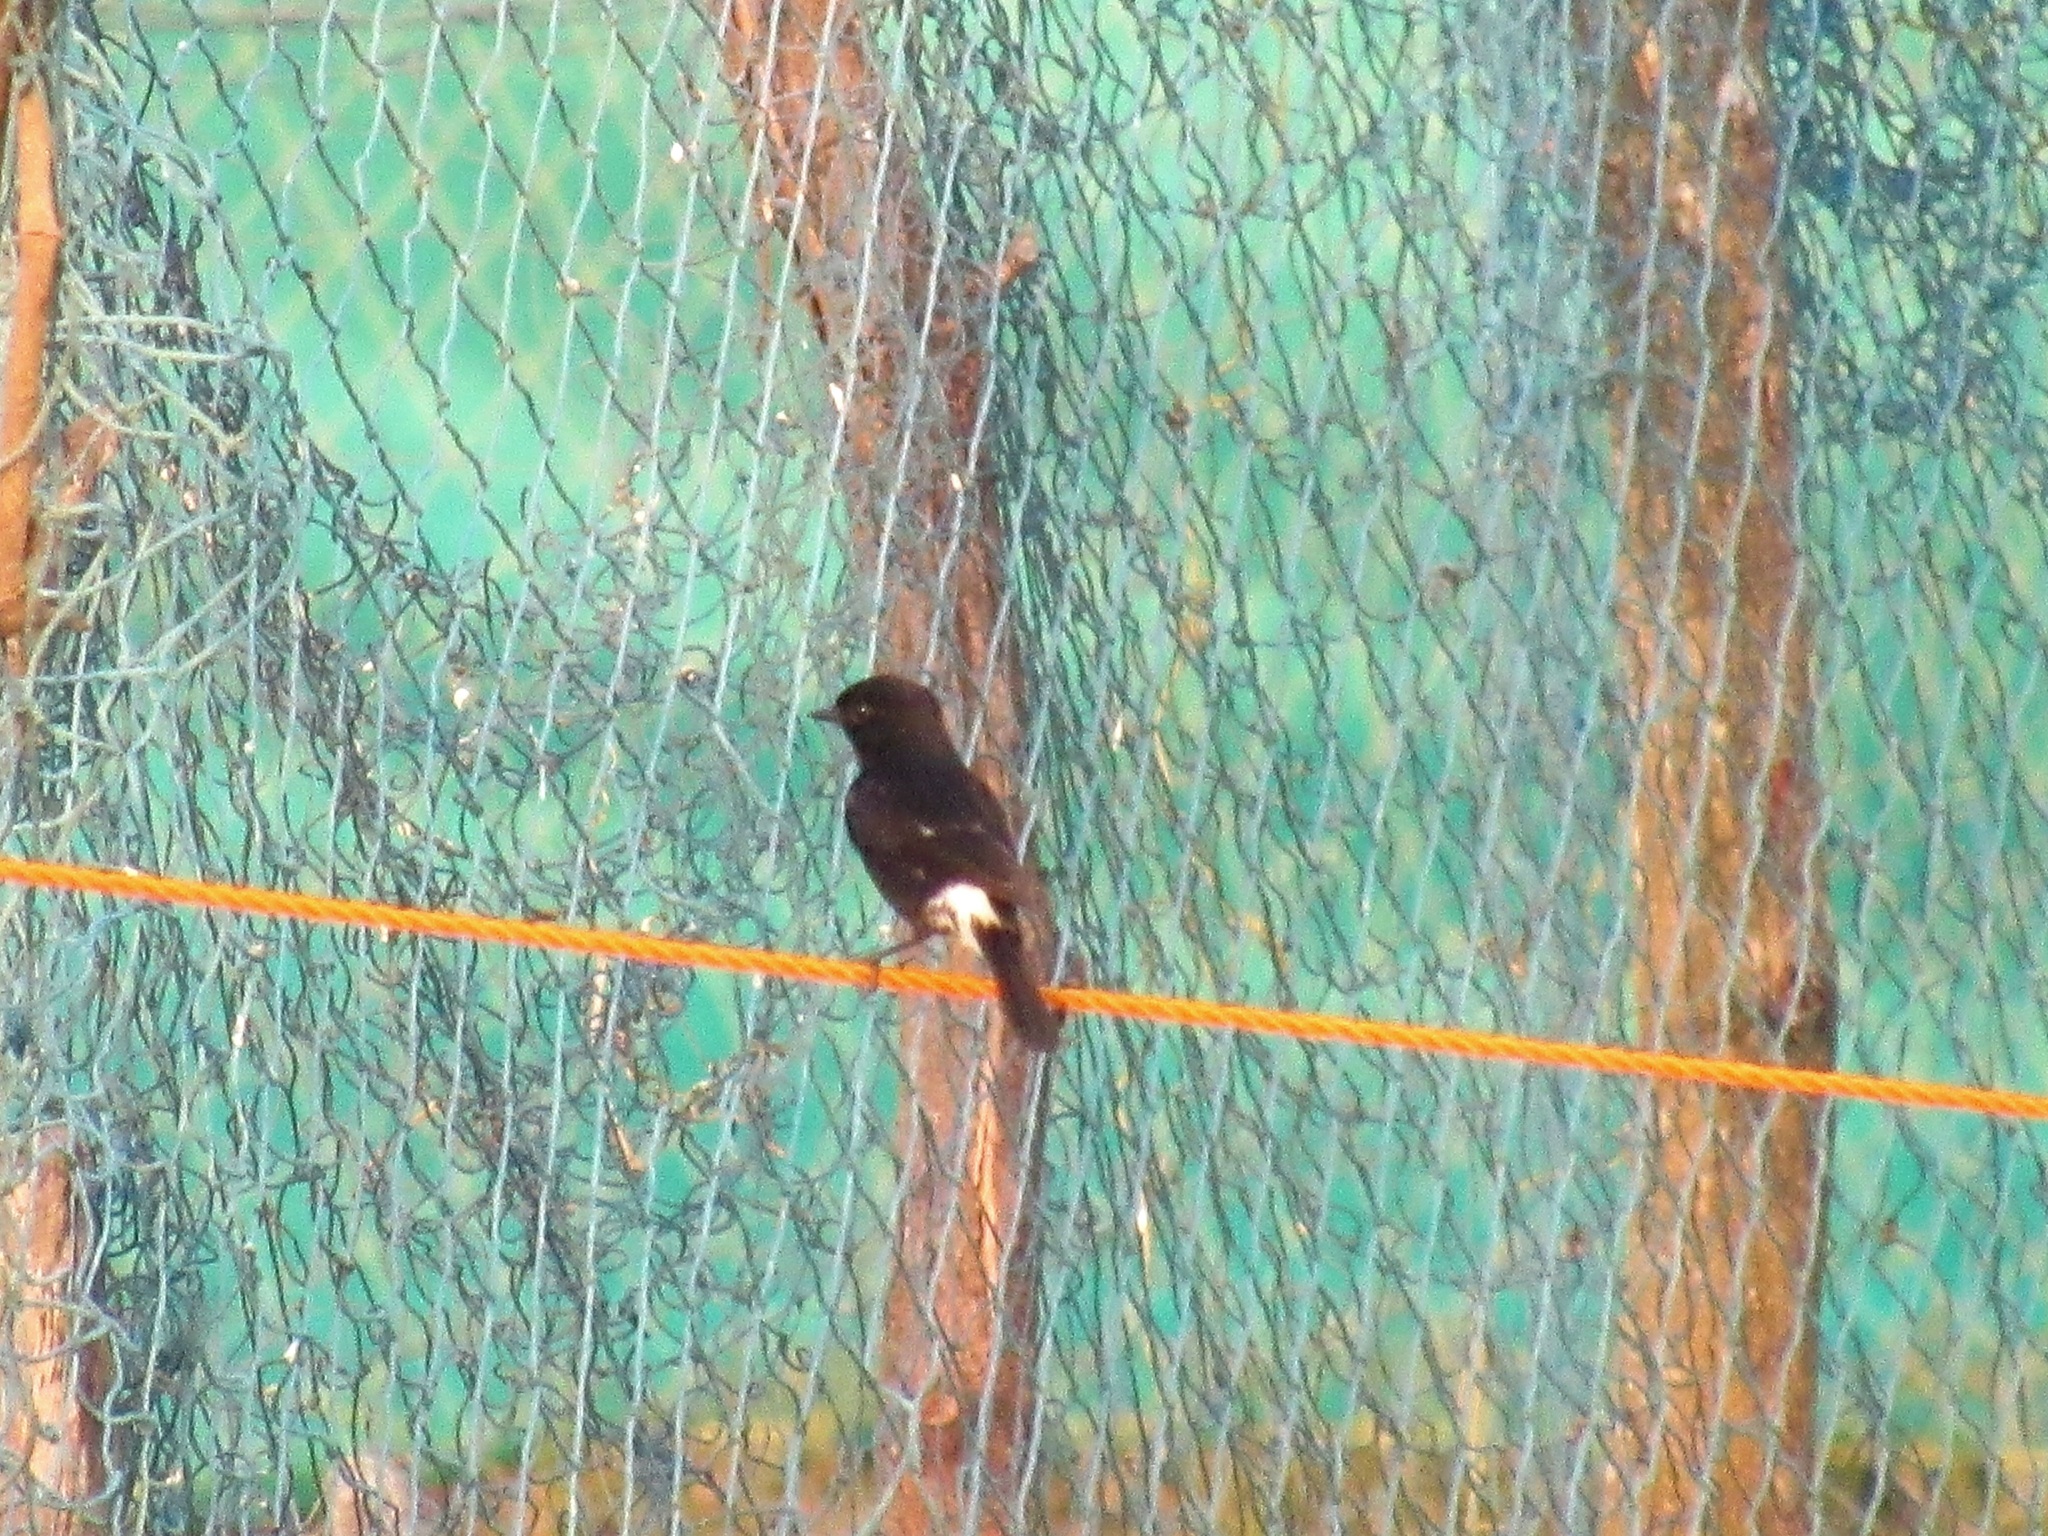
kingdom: Animalia
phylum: Chordata
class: Aves
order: Passeriformes
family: Muscicapidae
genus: Saxicola
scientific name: Saxicola caprata
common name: Pied bush chat
